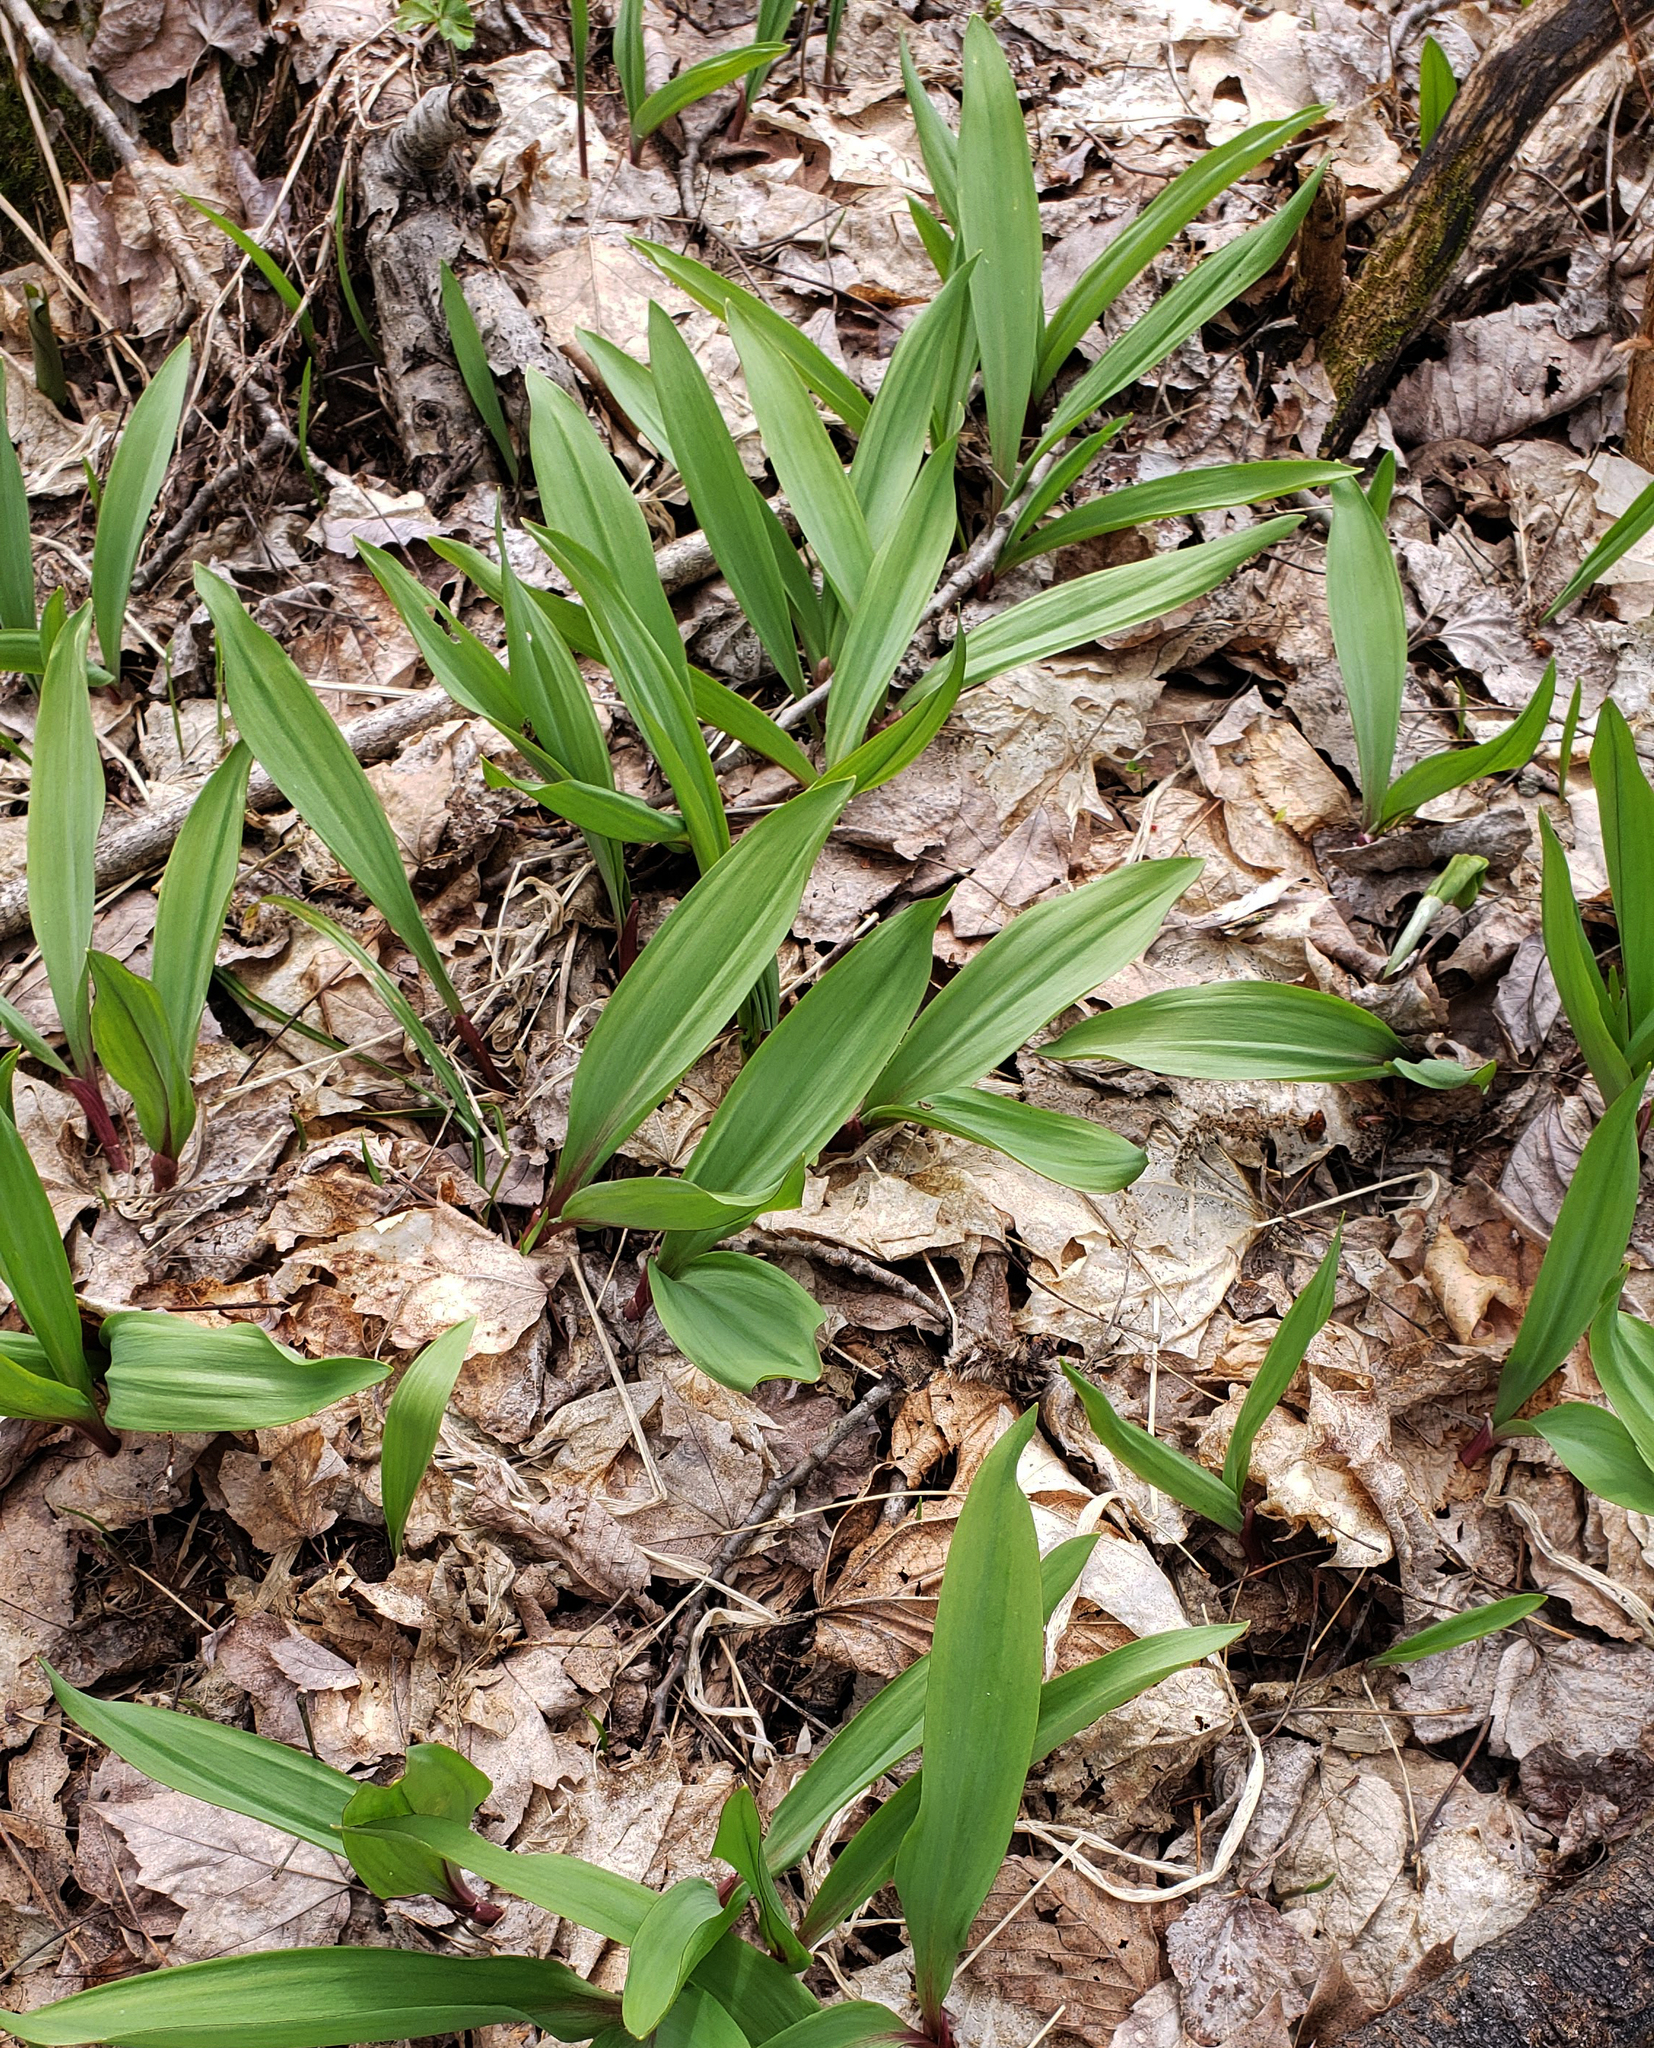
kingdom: Plantae
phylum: Tracheophyta
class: Liliopsida
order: Asparagales
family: Amaryllidaceae
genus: Allium
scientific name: Allium tricoccum
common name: Ramp
